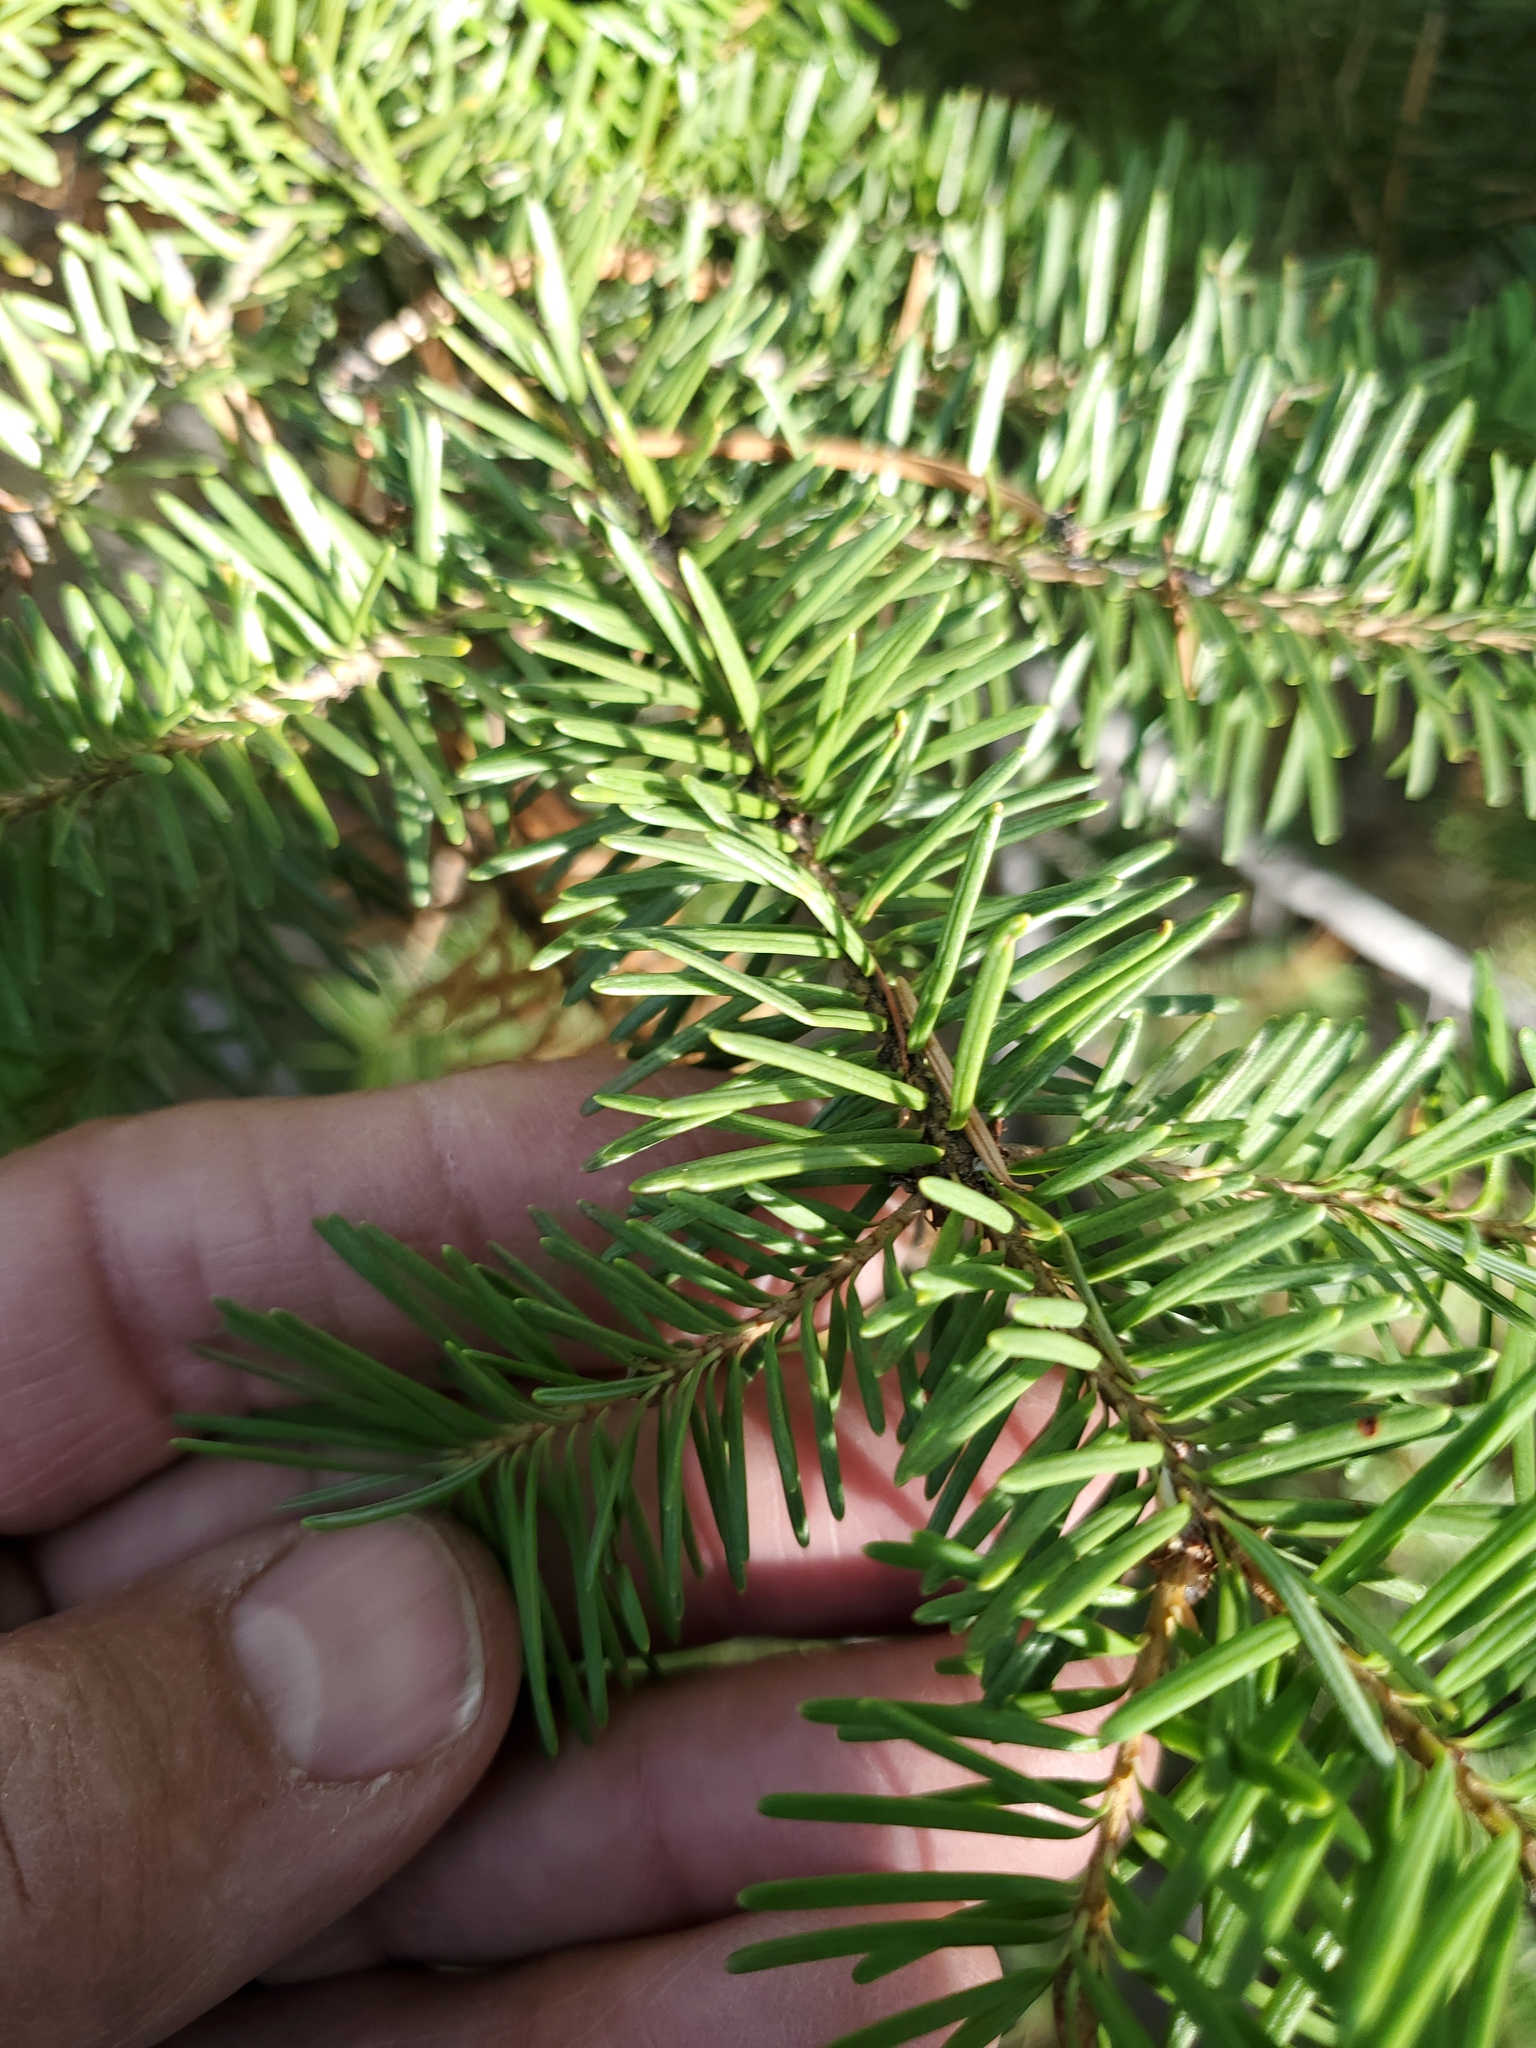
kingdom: Plantae
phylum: Tracheophyta
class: Pinopsida
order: Pinales
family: Pinaceae
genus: Pseudotsuga
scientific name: Pseudotsuga menziesii
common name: Douglas fir
